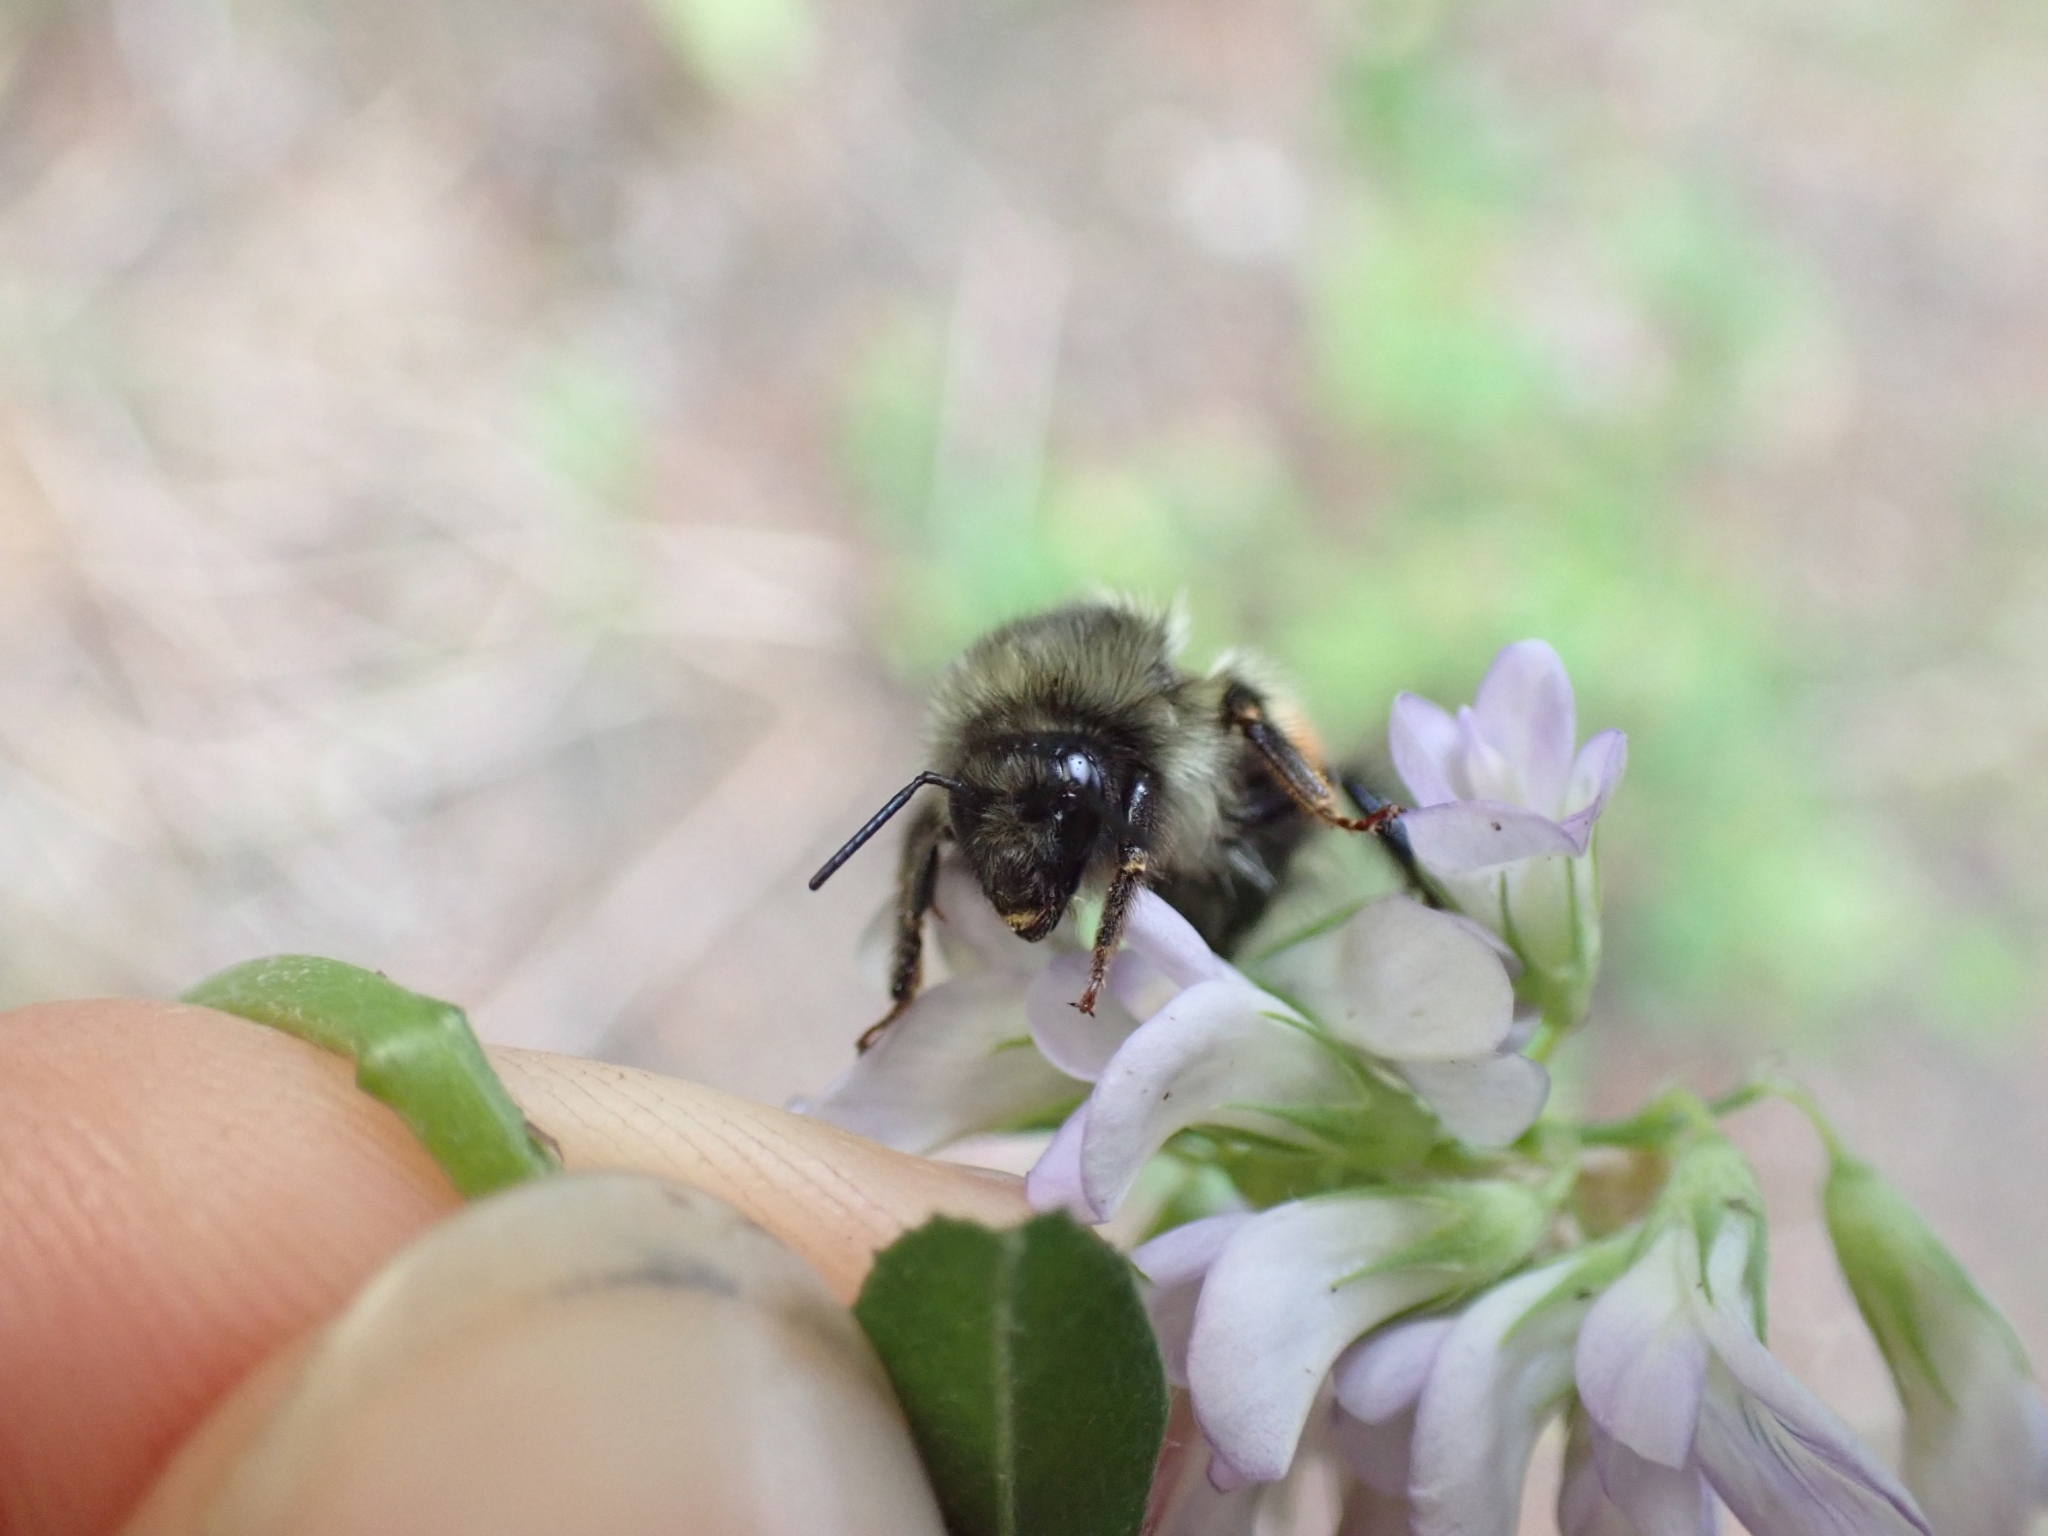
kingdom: Animalia
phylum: Arthropoda
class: Insecta
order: Hymenoptera
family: Apidae
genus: Bombus
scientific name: Bombus melanopygus
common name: Black tail bumble bee
